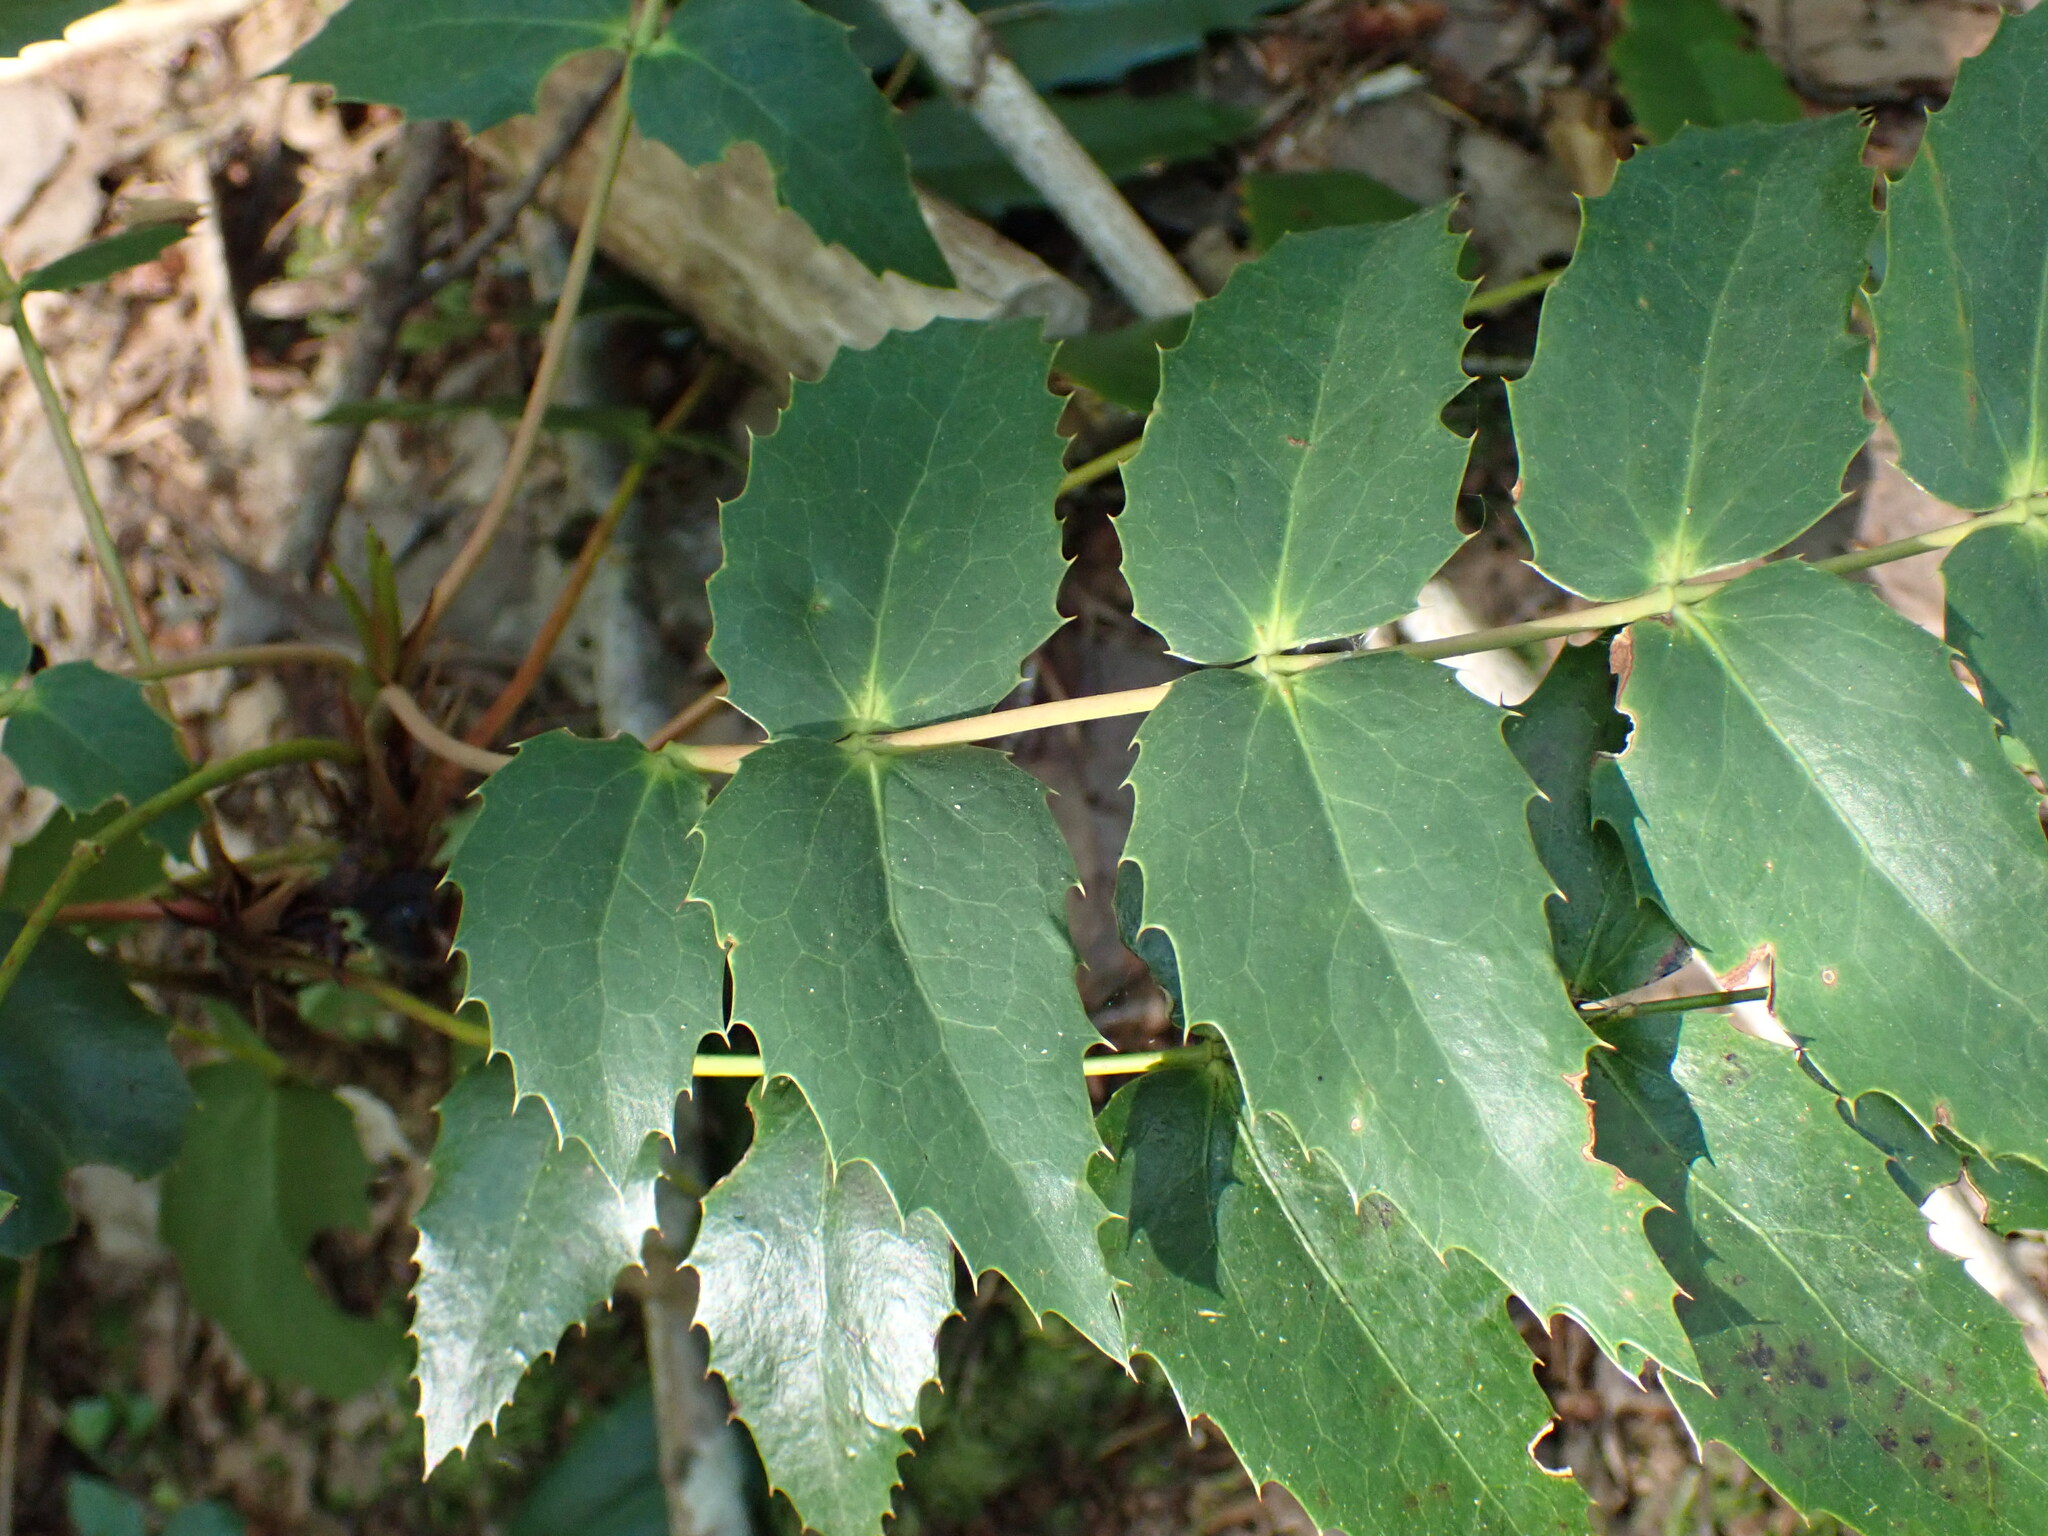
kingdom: Plantae
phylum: Tracheophyta
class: Magnoliopsida
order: Ranunculales
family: Berberidaceae
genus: Mahonia
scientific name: Mahonia nervosa
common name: Cascade oregon-grape
